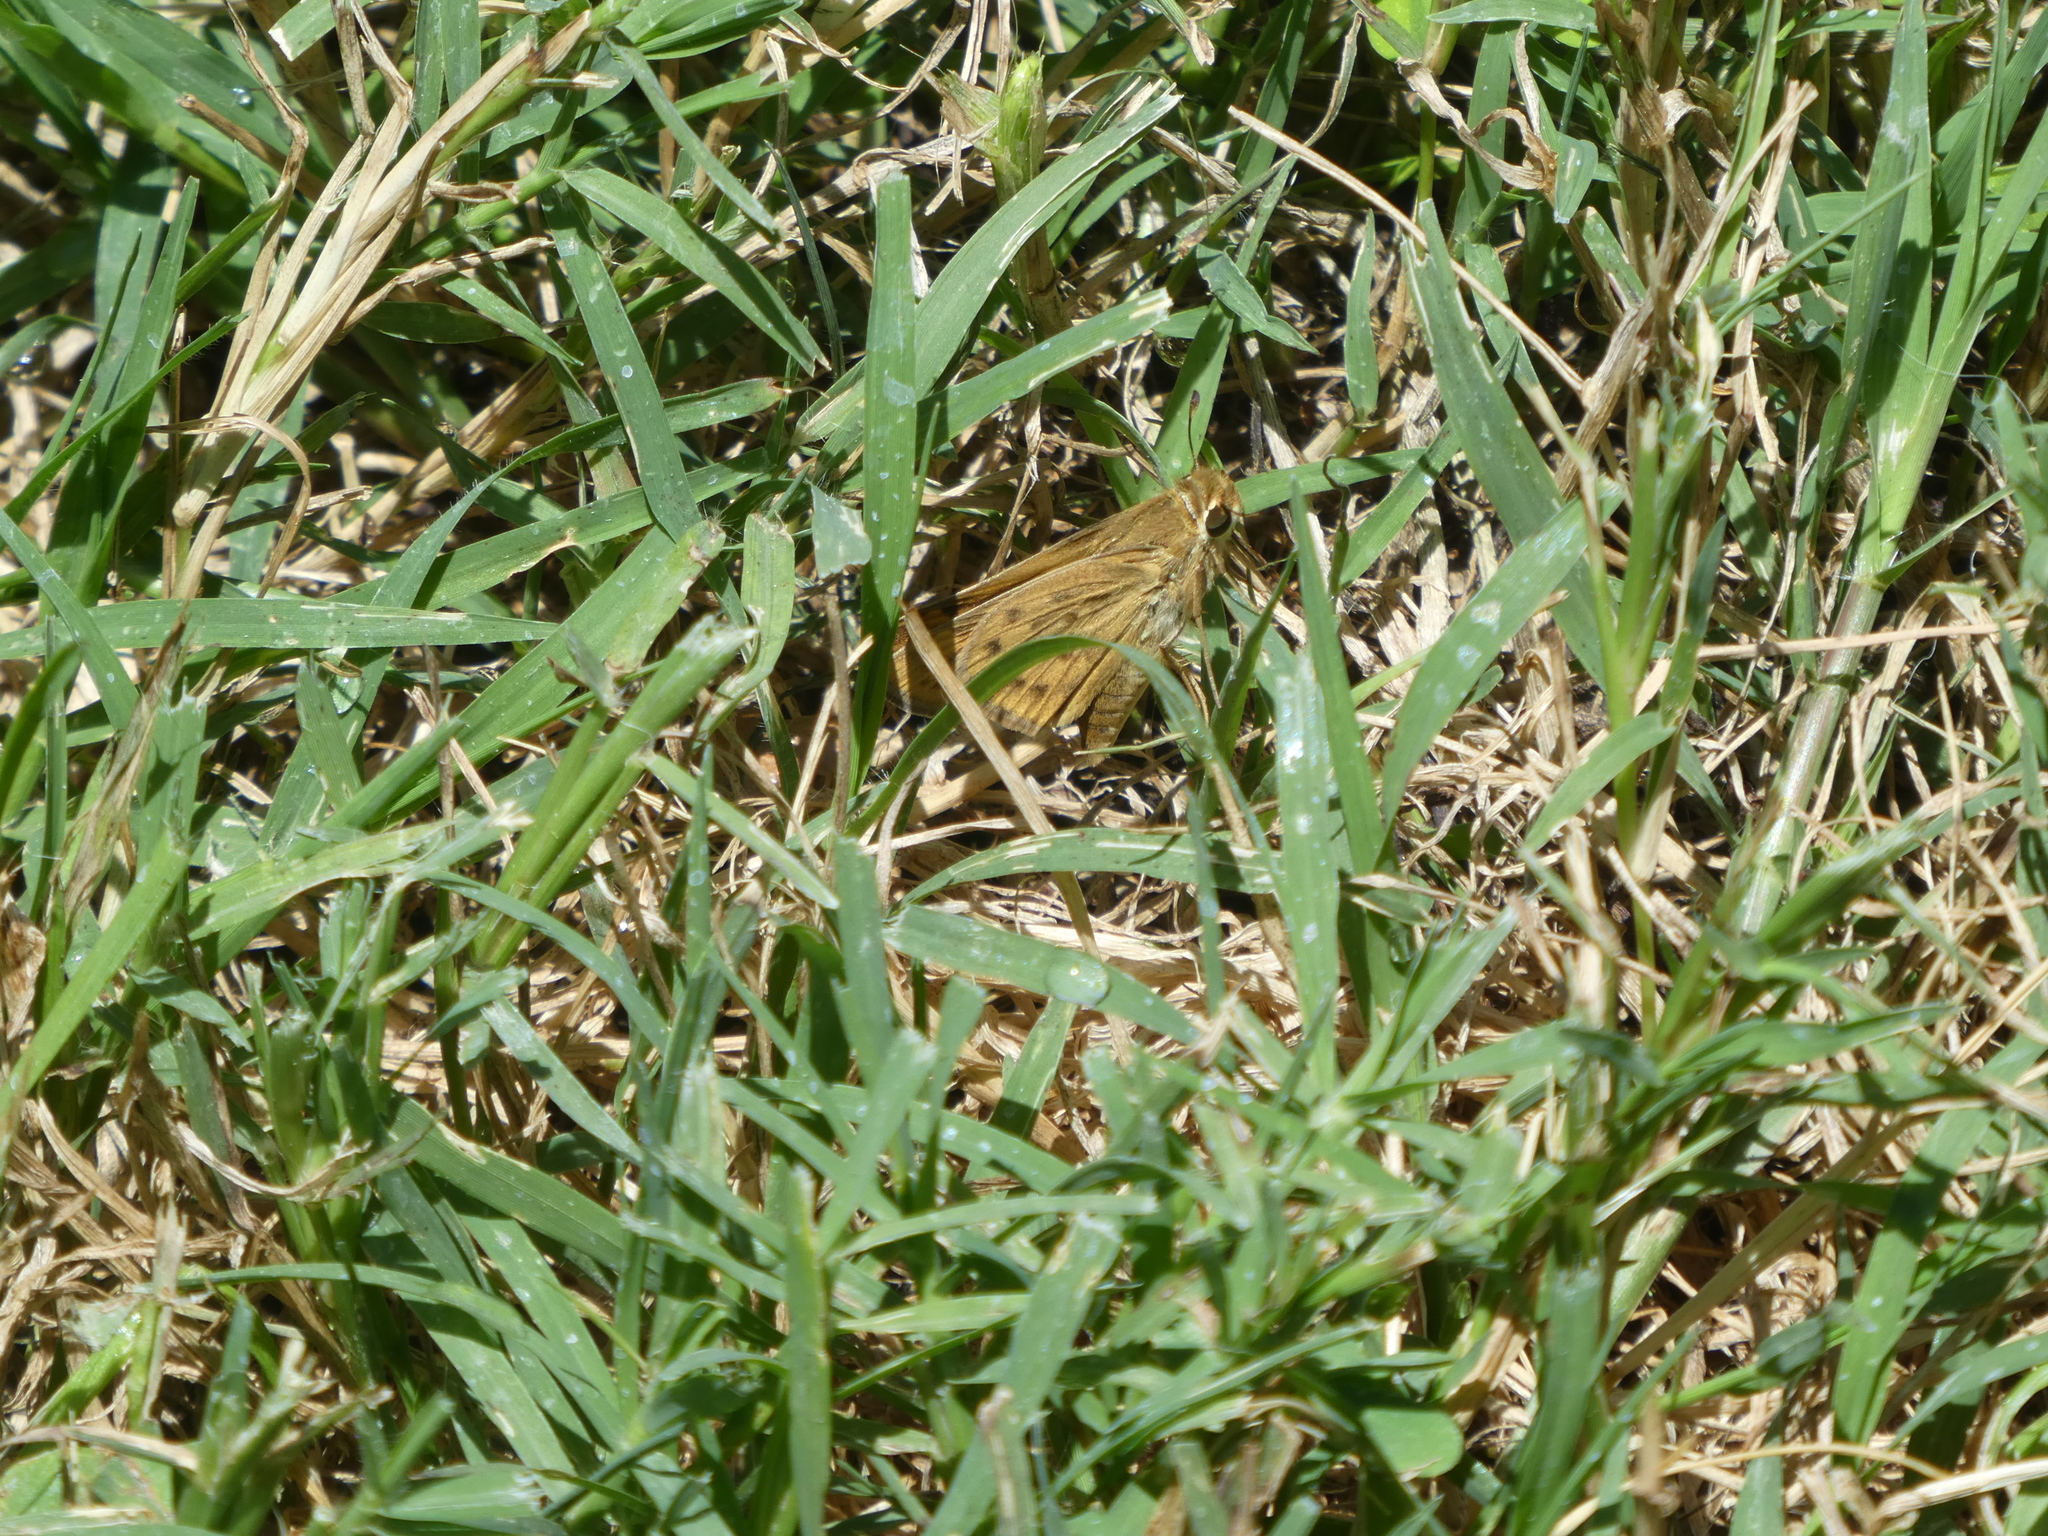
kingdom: Animalia
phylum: Arthropoda
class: Insecta
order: Lepidoptera
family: Hesperiidae
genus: Hylephila
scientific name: Hylephila phyleus
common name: Fiery skipper
